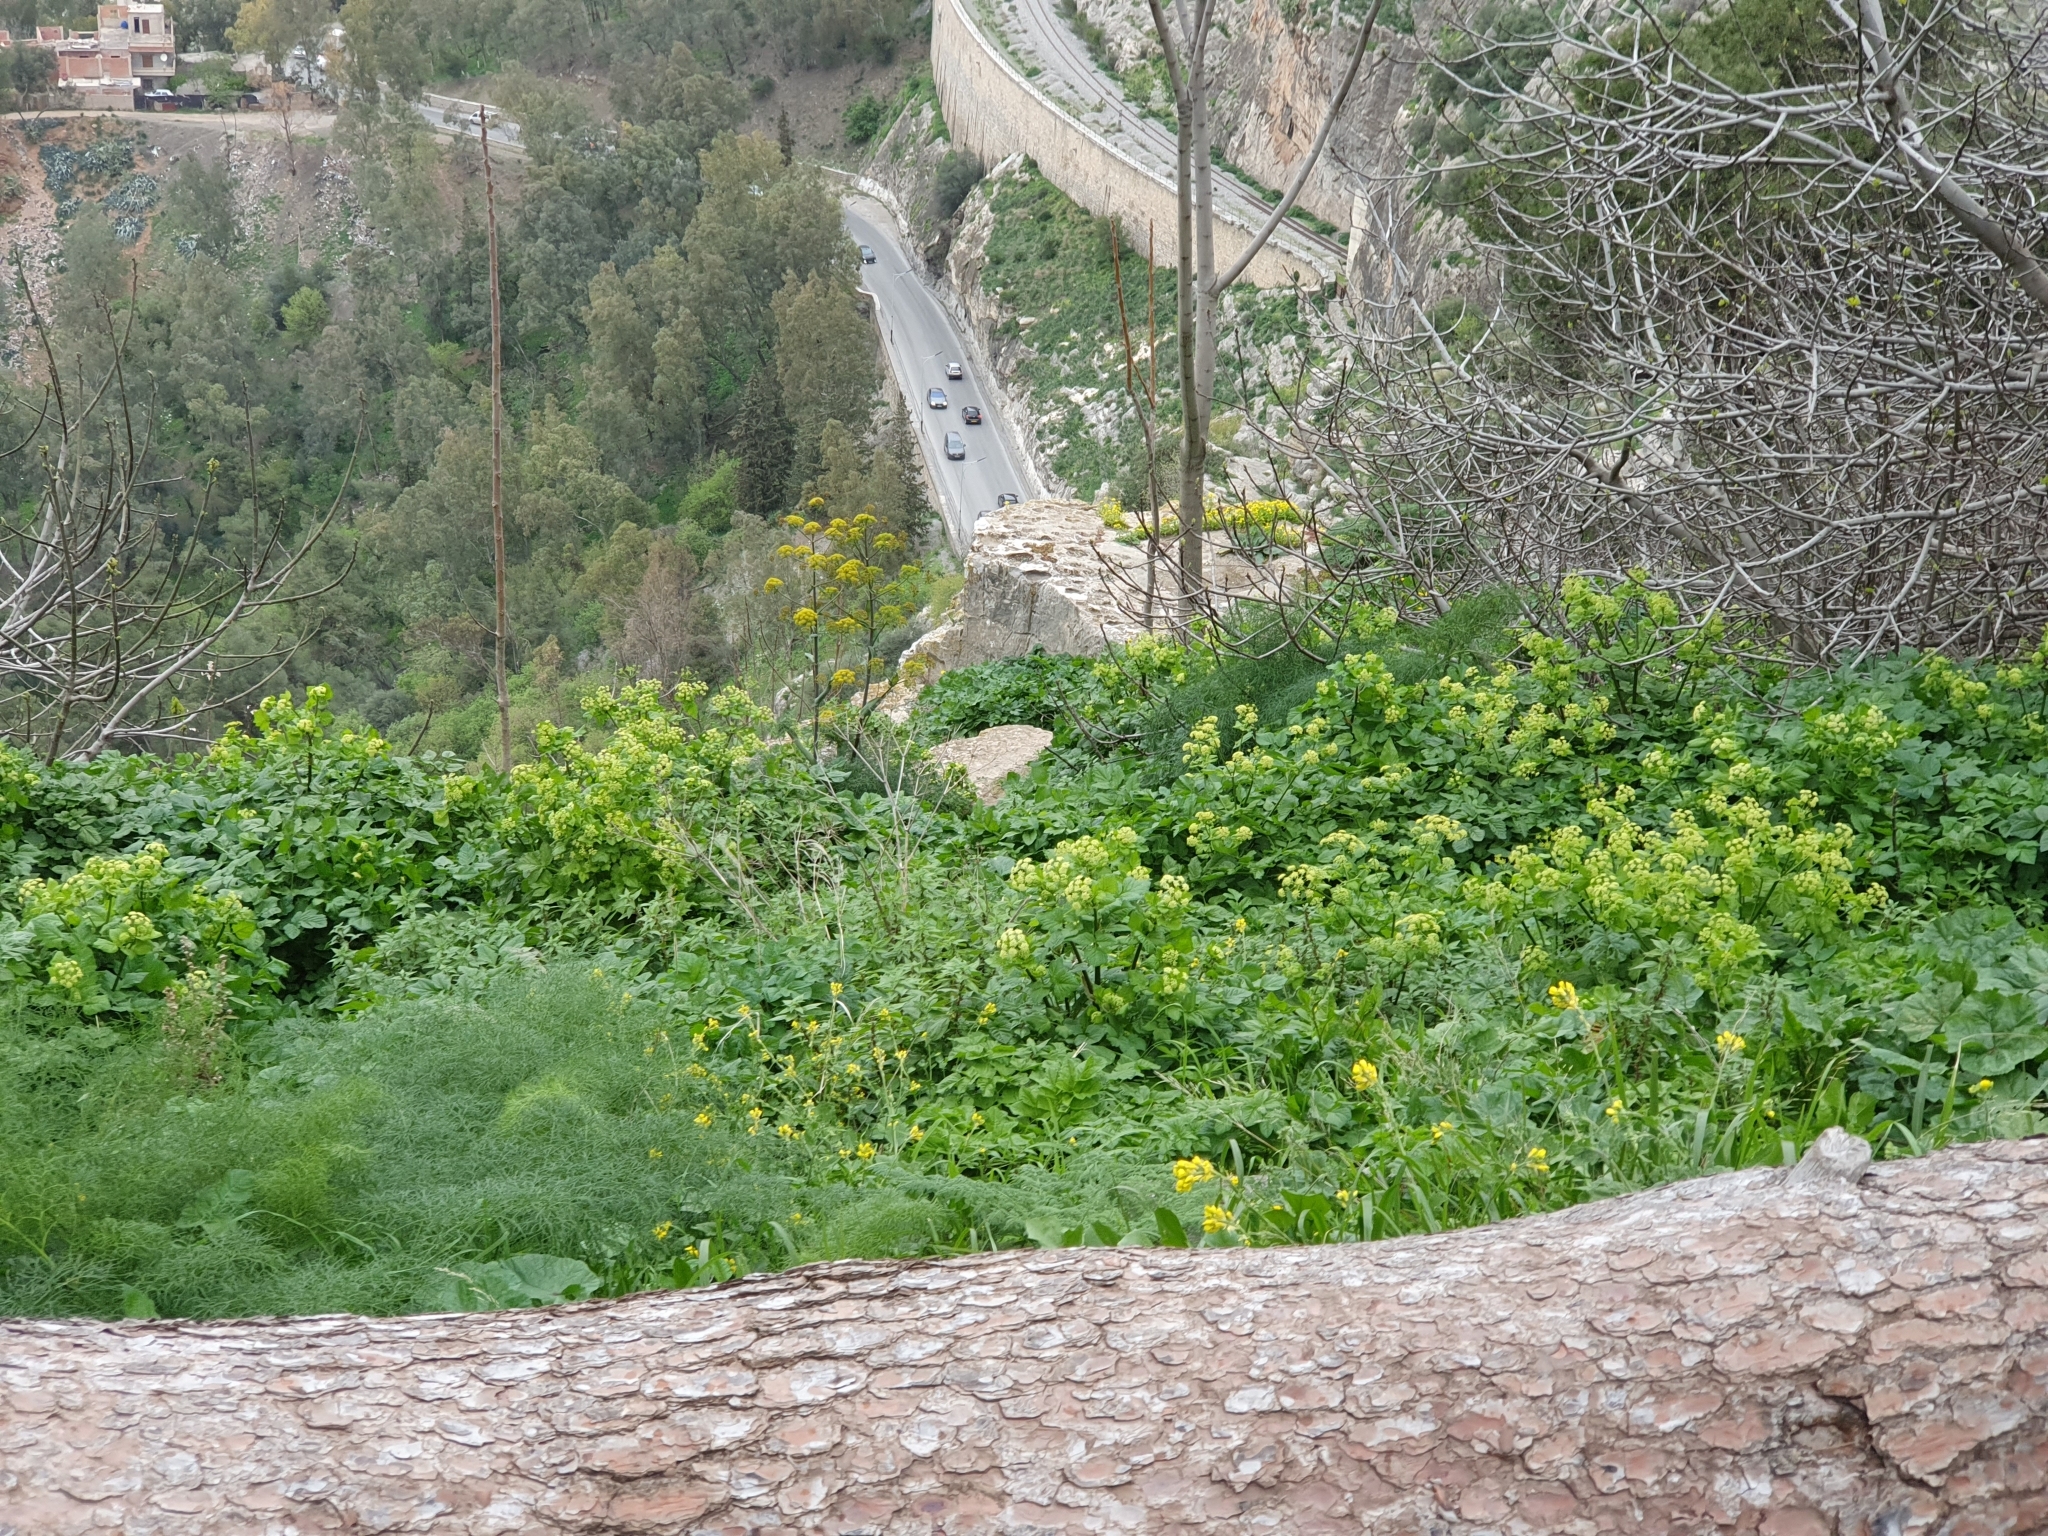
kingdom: Plantae
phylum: Tracheophyta
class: Magnoliopsida
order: Apiales
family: Apiaceae
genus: Smyrnium
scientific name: Smyrnium olusatrum
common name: Alexanders
